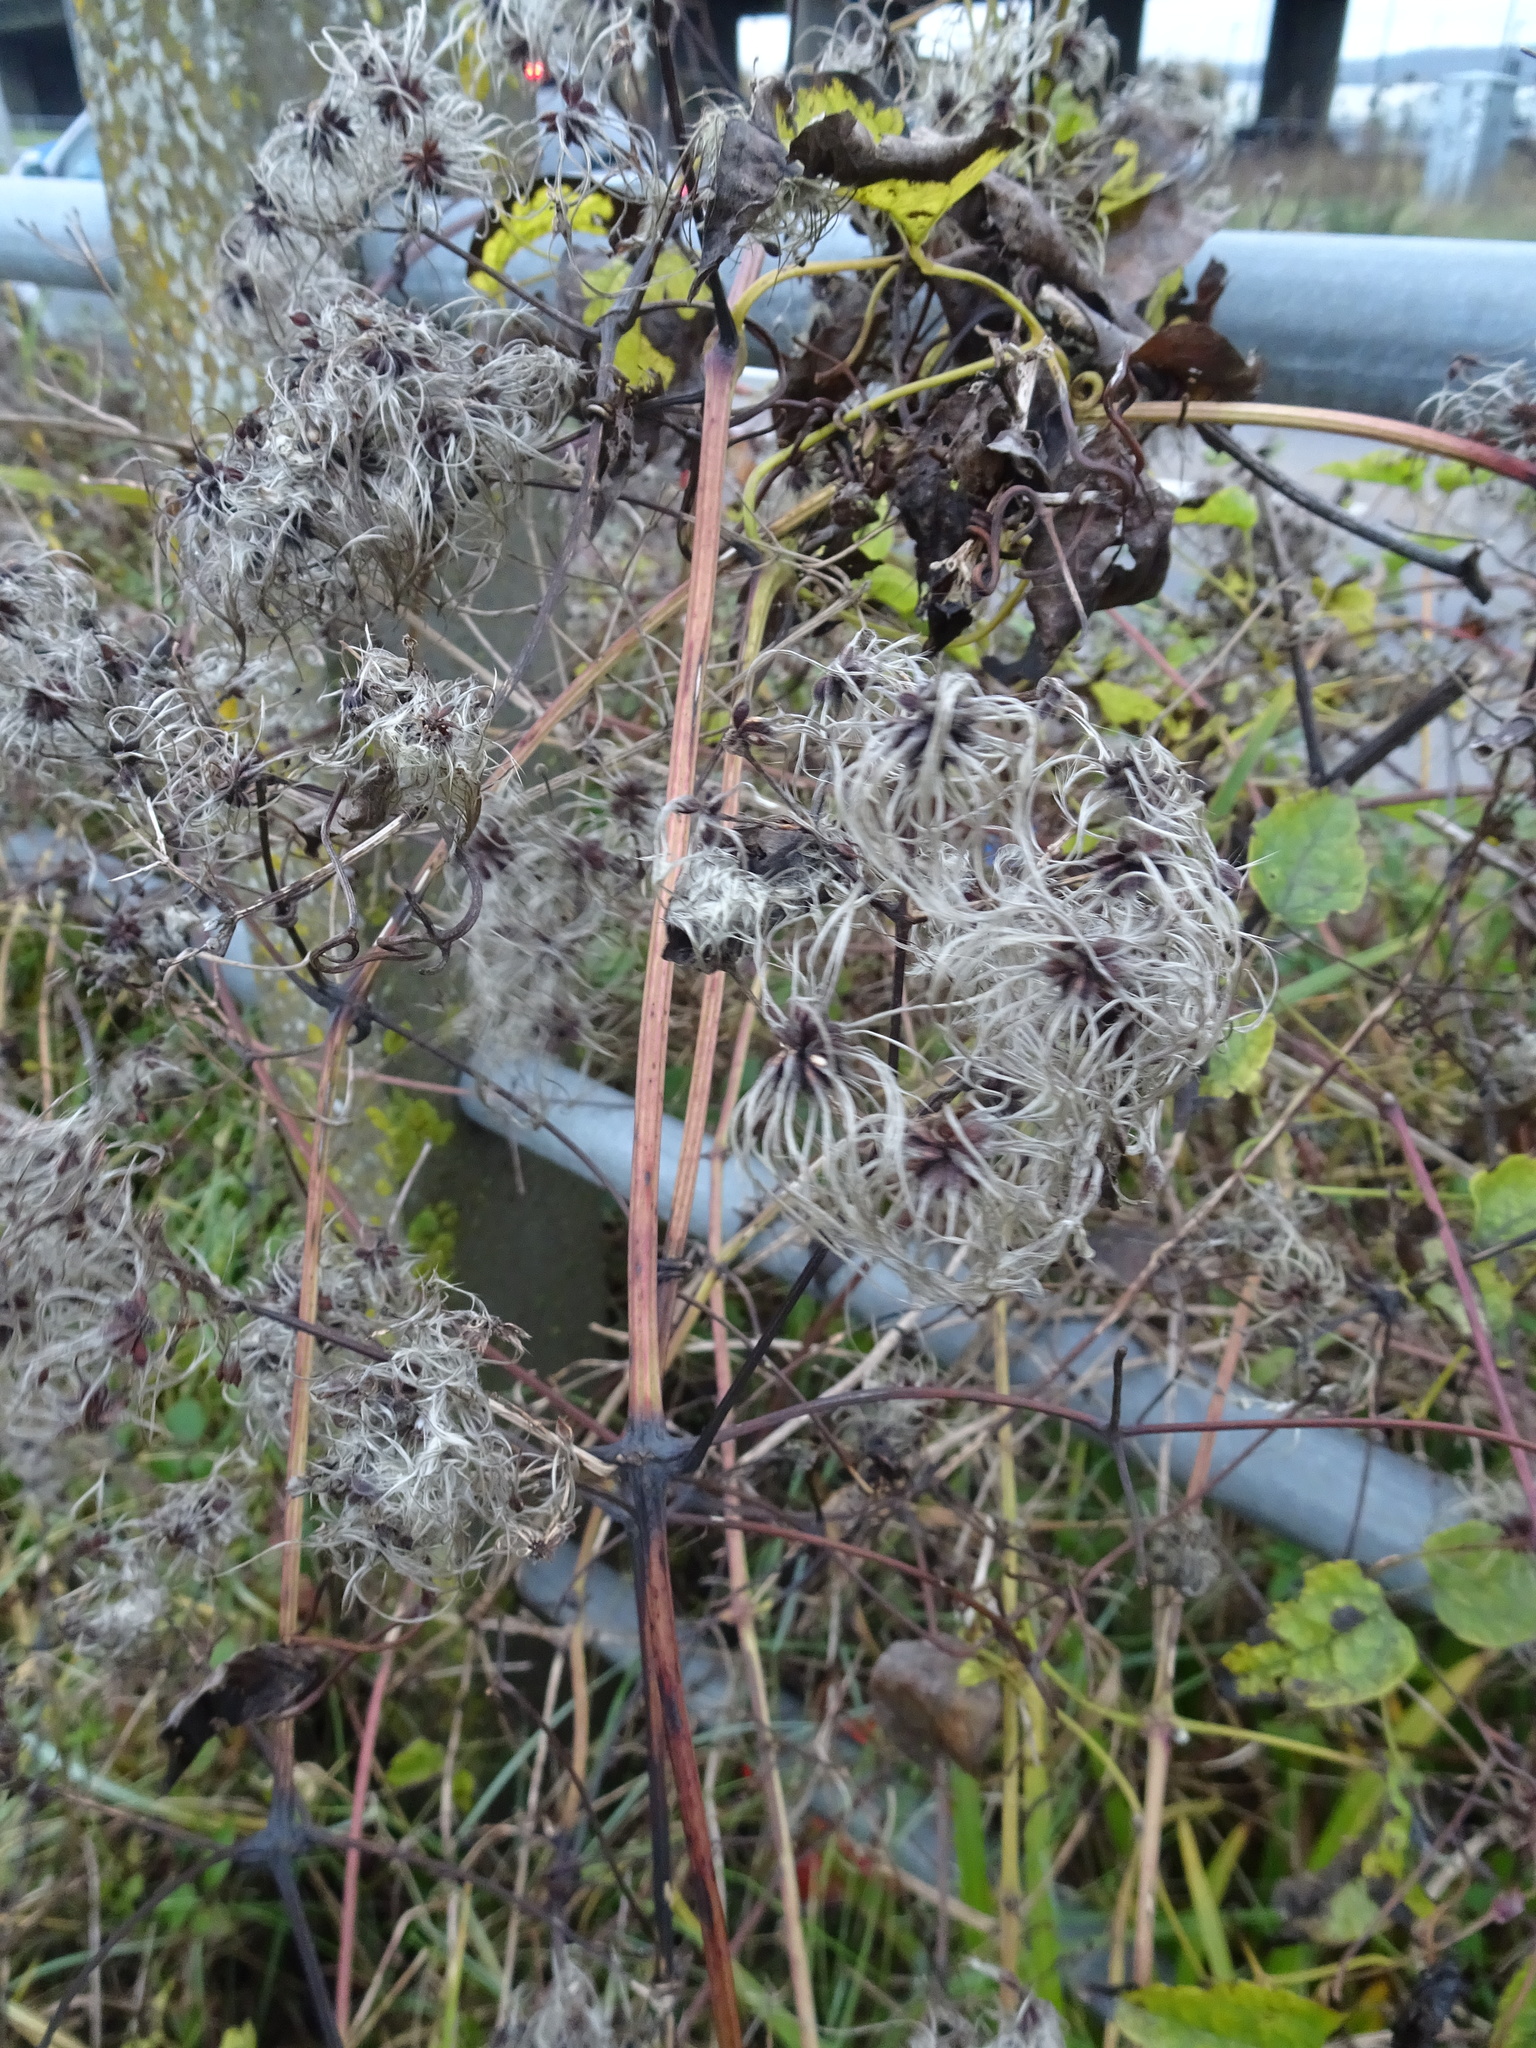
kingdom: Plantae
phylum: Tracheophyta
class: Magnoliopsida
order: Ranunculales
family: Ranunculaceae
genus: Clematis
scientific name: Clematis vitalba
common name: Evergreen clematis
